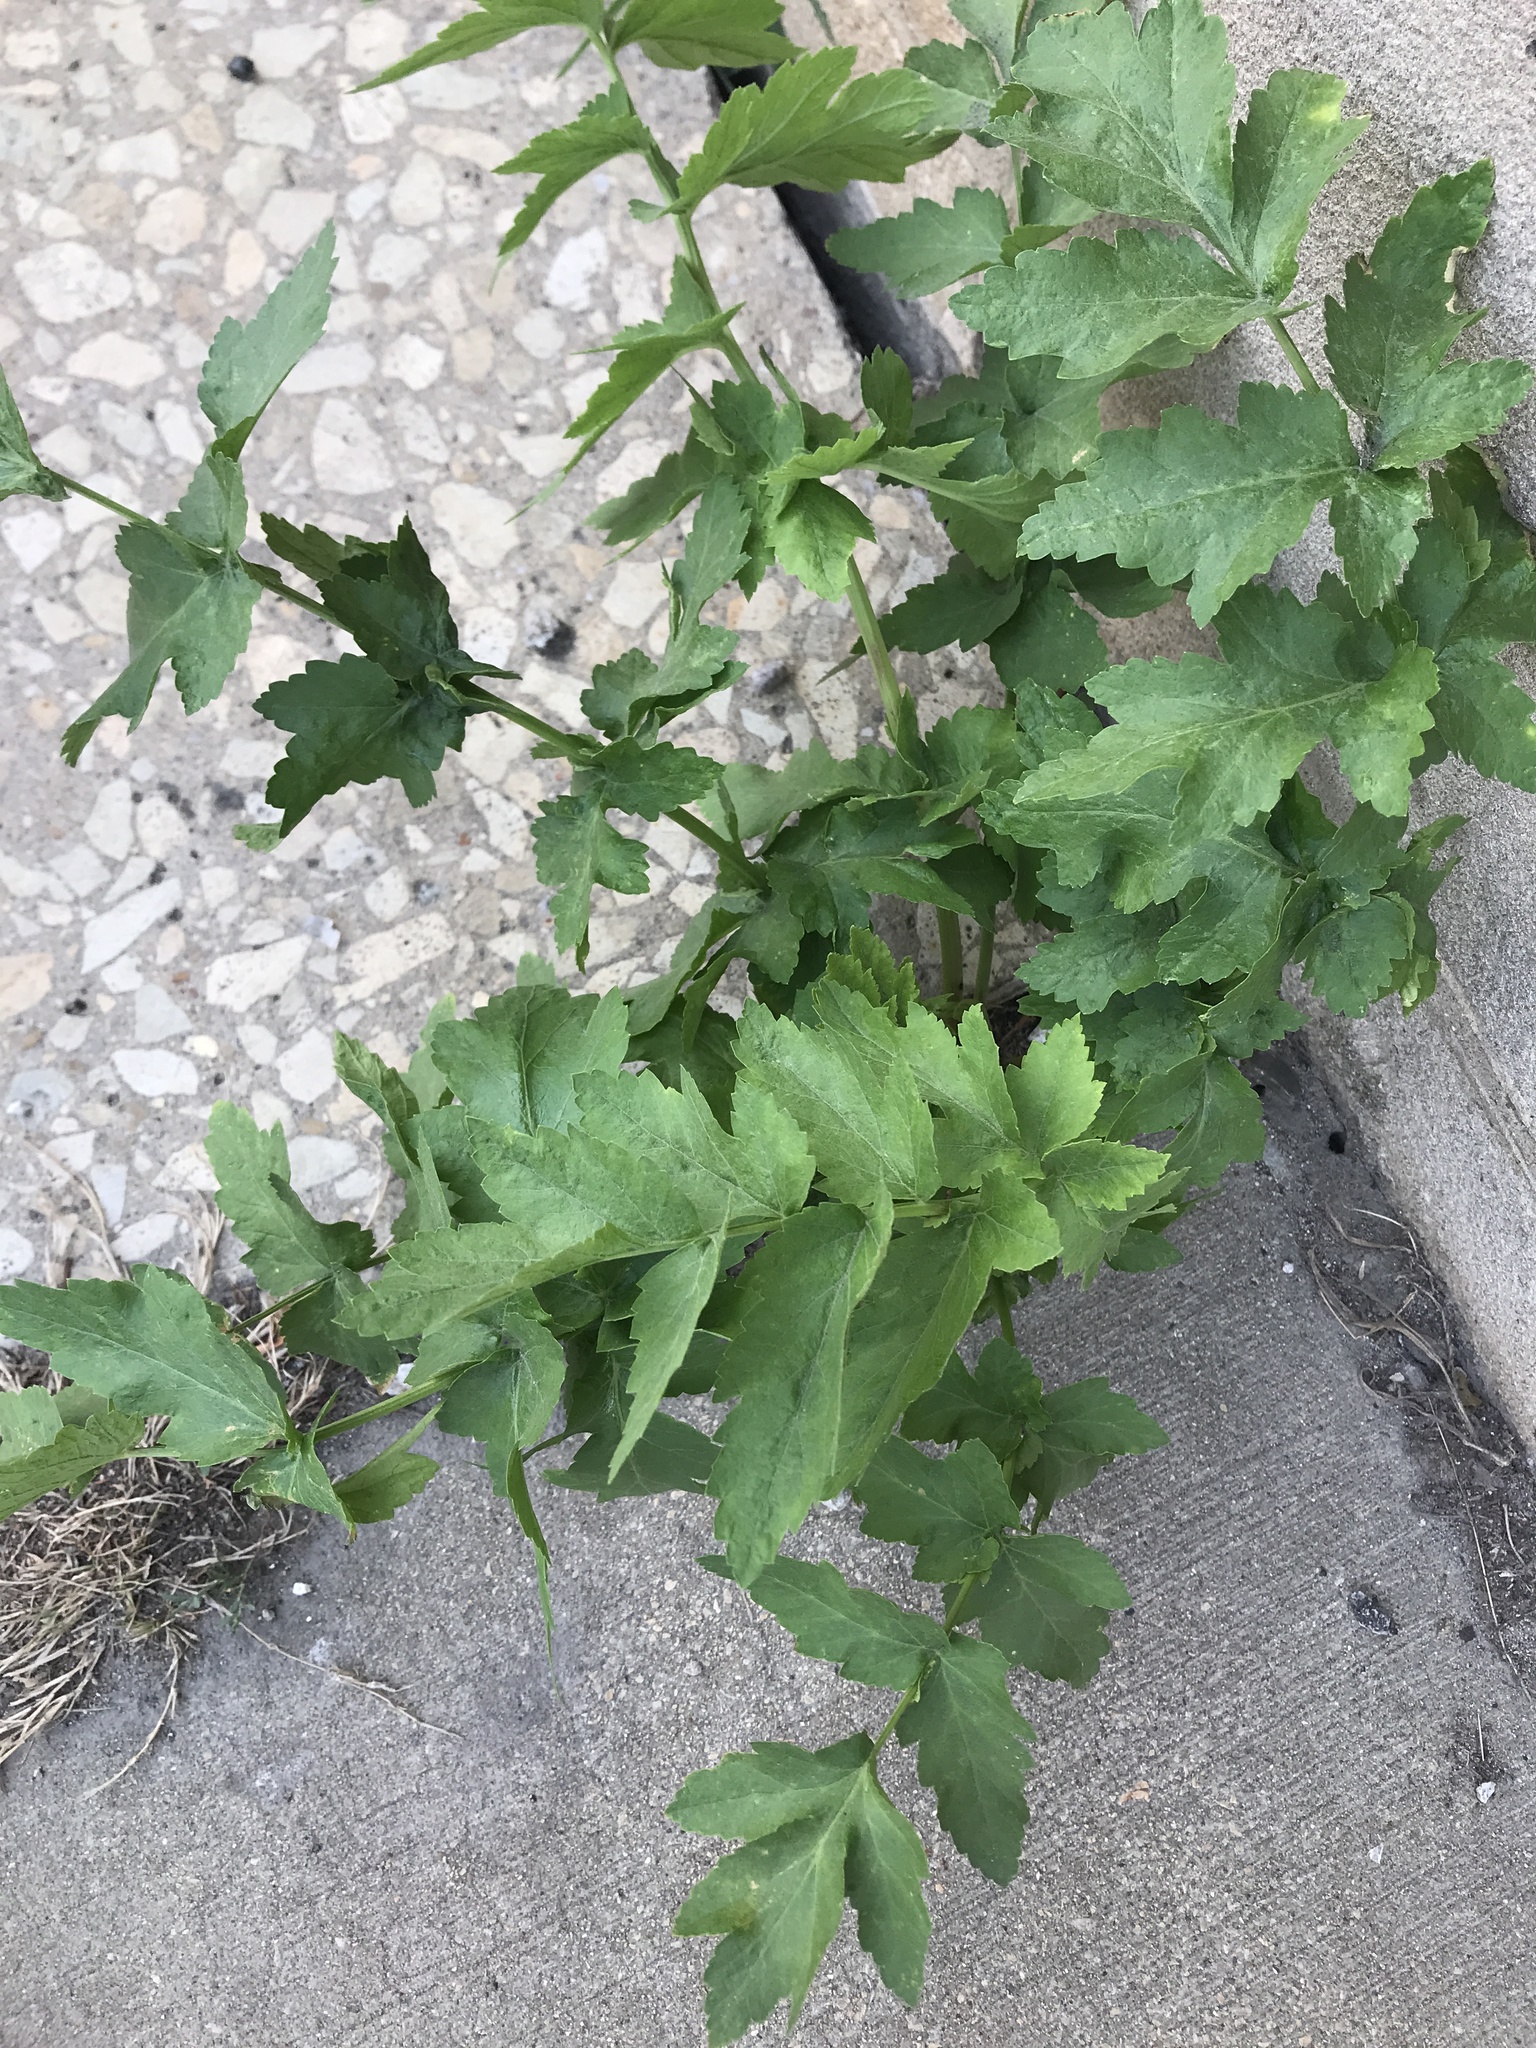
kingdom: Plantae
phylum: Tracheophyta
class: Magnoliopsida
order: Apiales
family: Apiaceae
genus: Pastinaca
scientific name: Pastinaca sativa
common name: Wild parsnip
